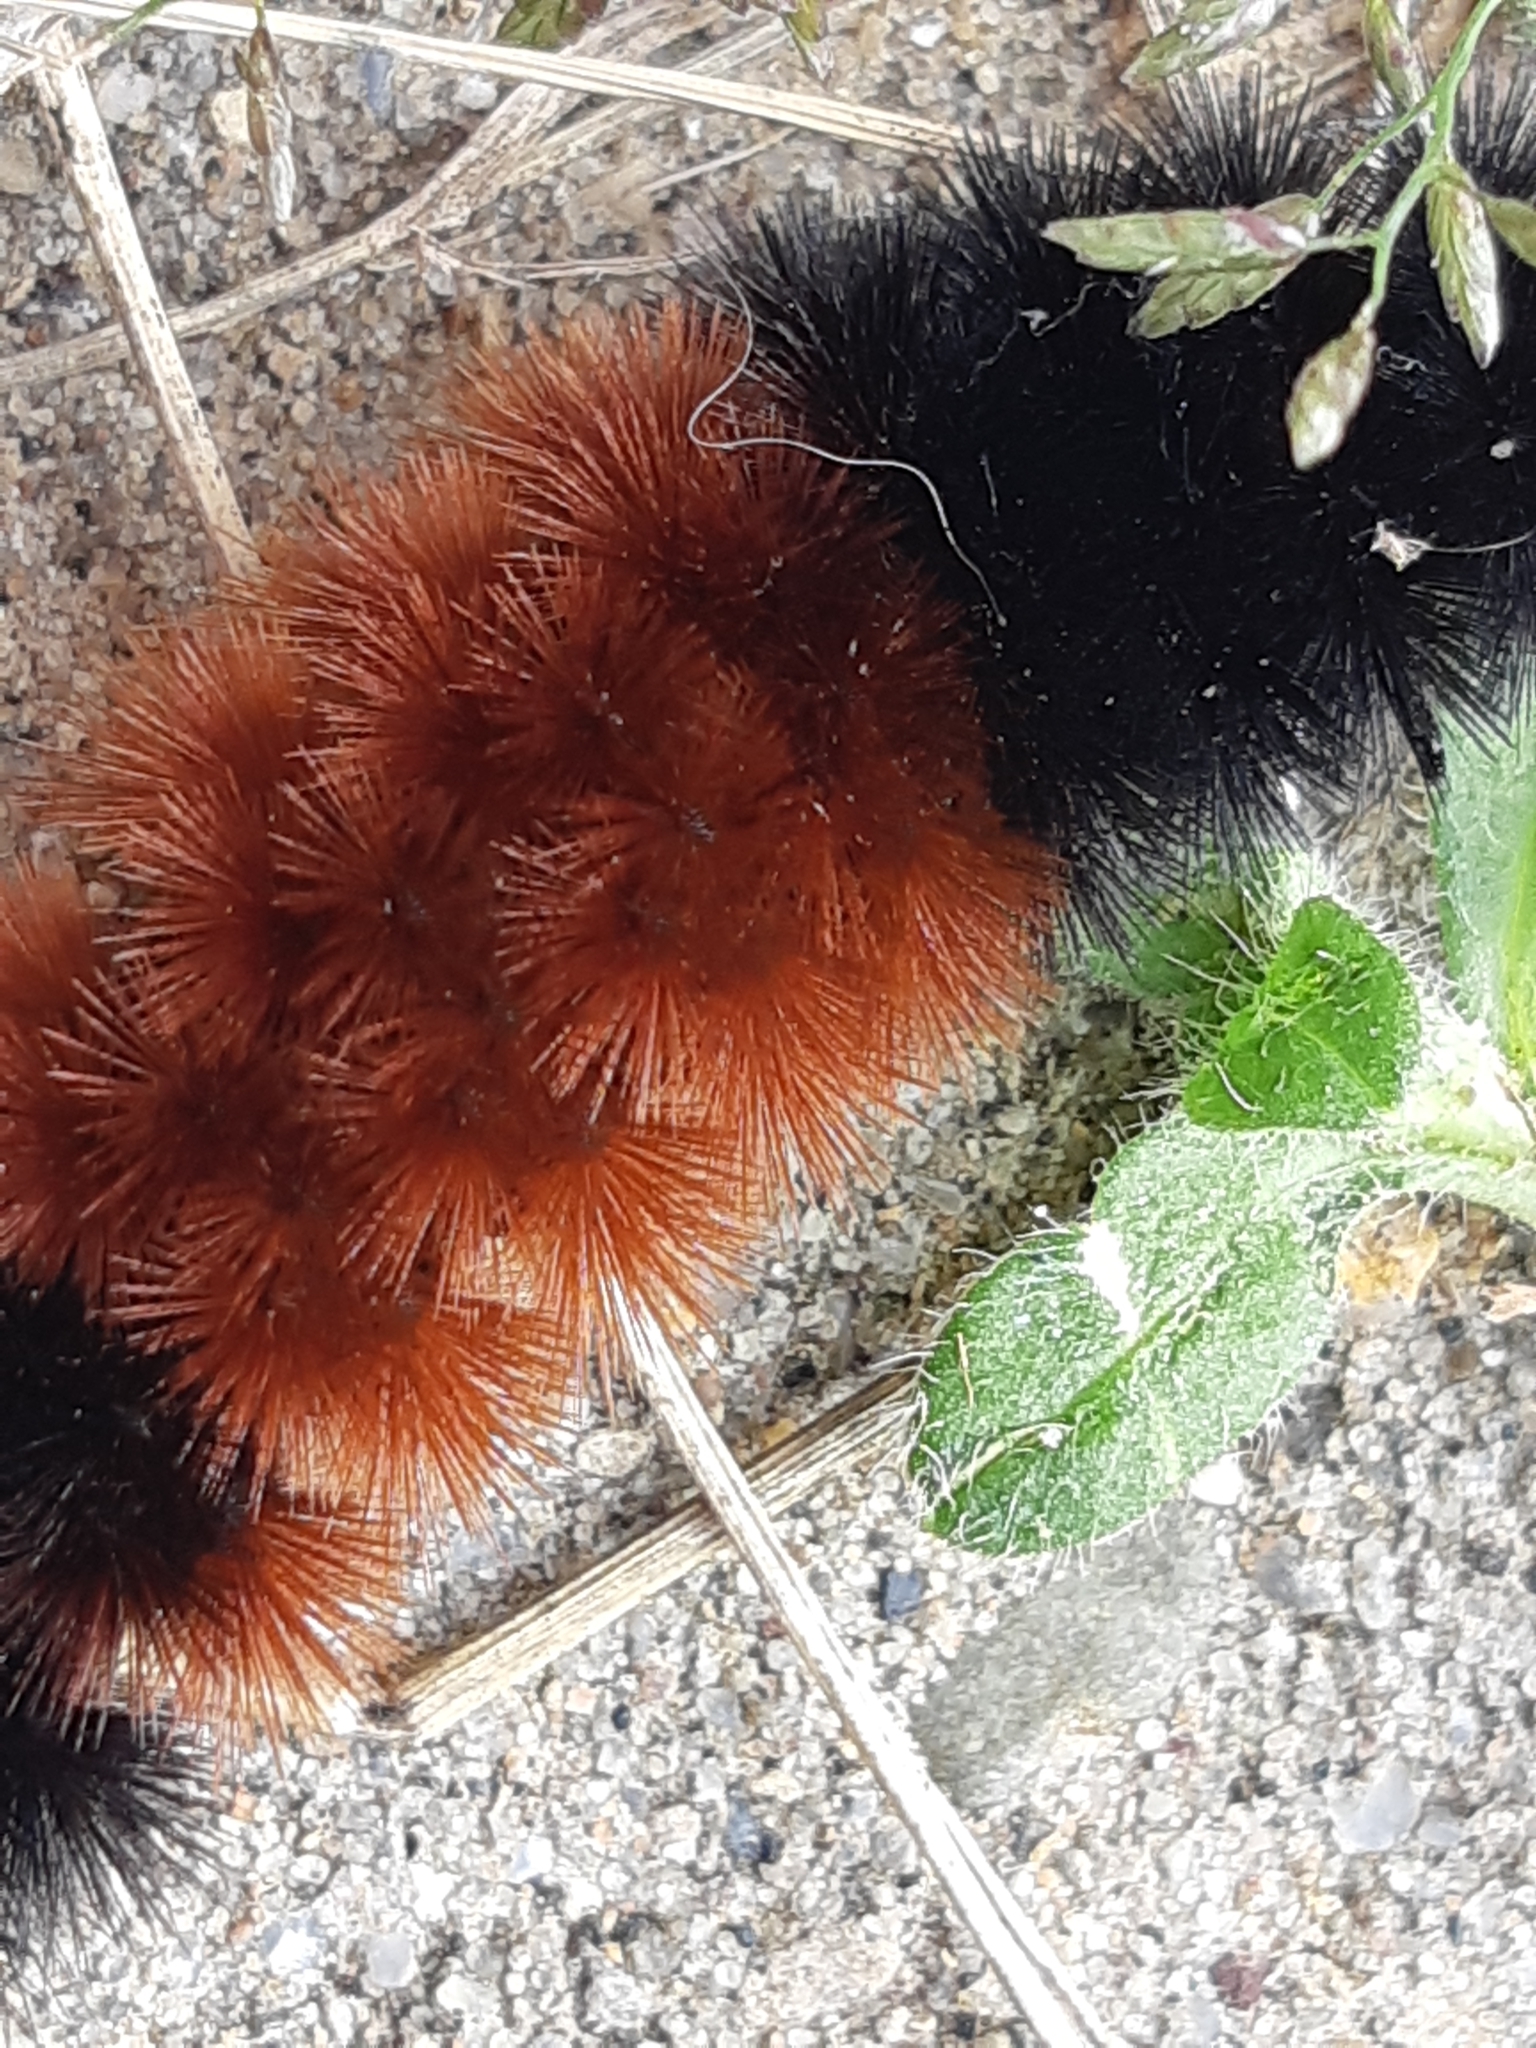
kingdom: Animalia
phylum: Arthropoda
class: Insecta
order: Lepidoptera
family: Erebidae
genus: Pyrrharctia
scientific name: Pyrrharctia isabella
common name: Isabella tiger moth
